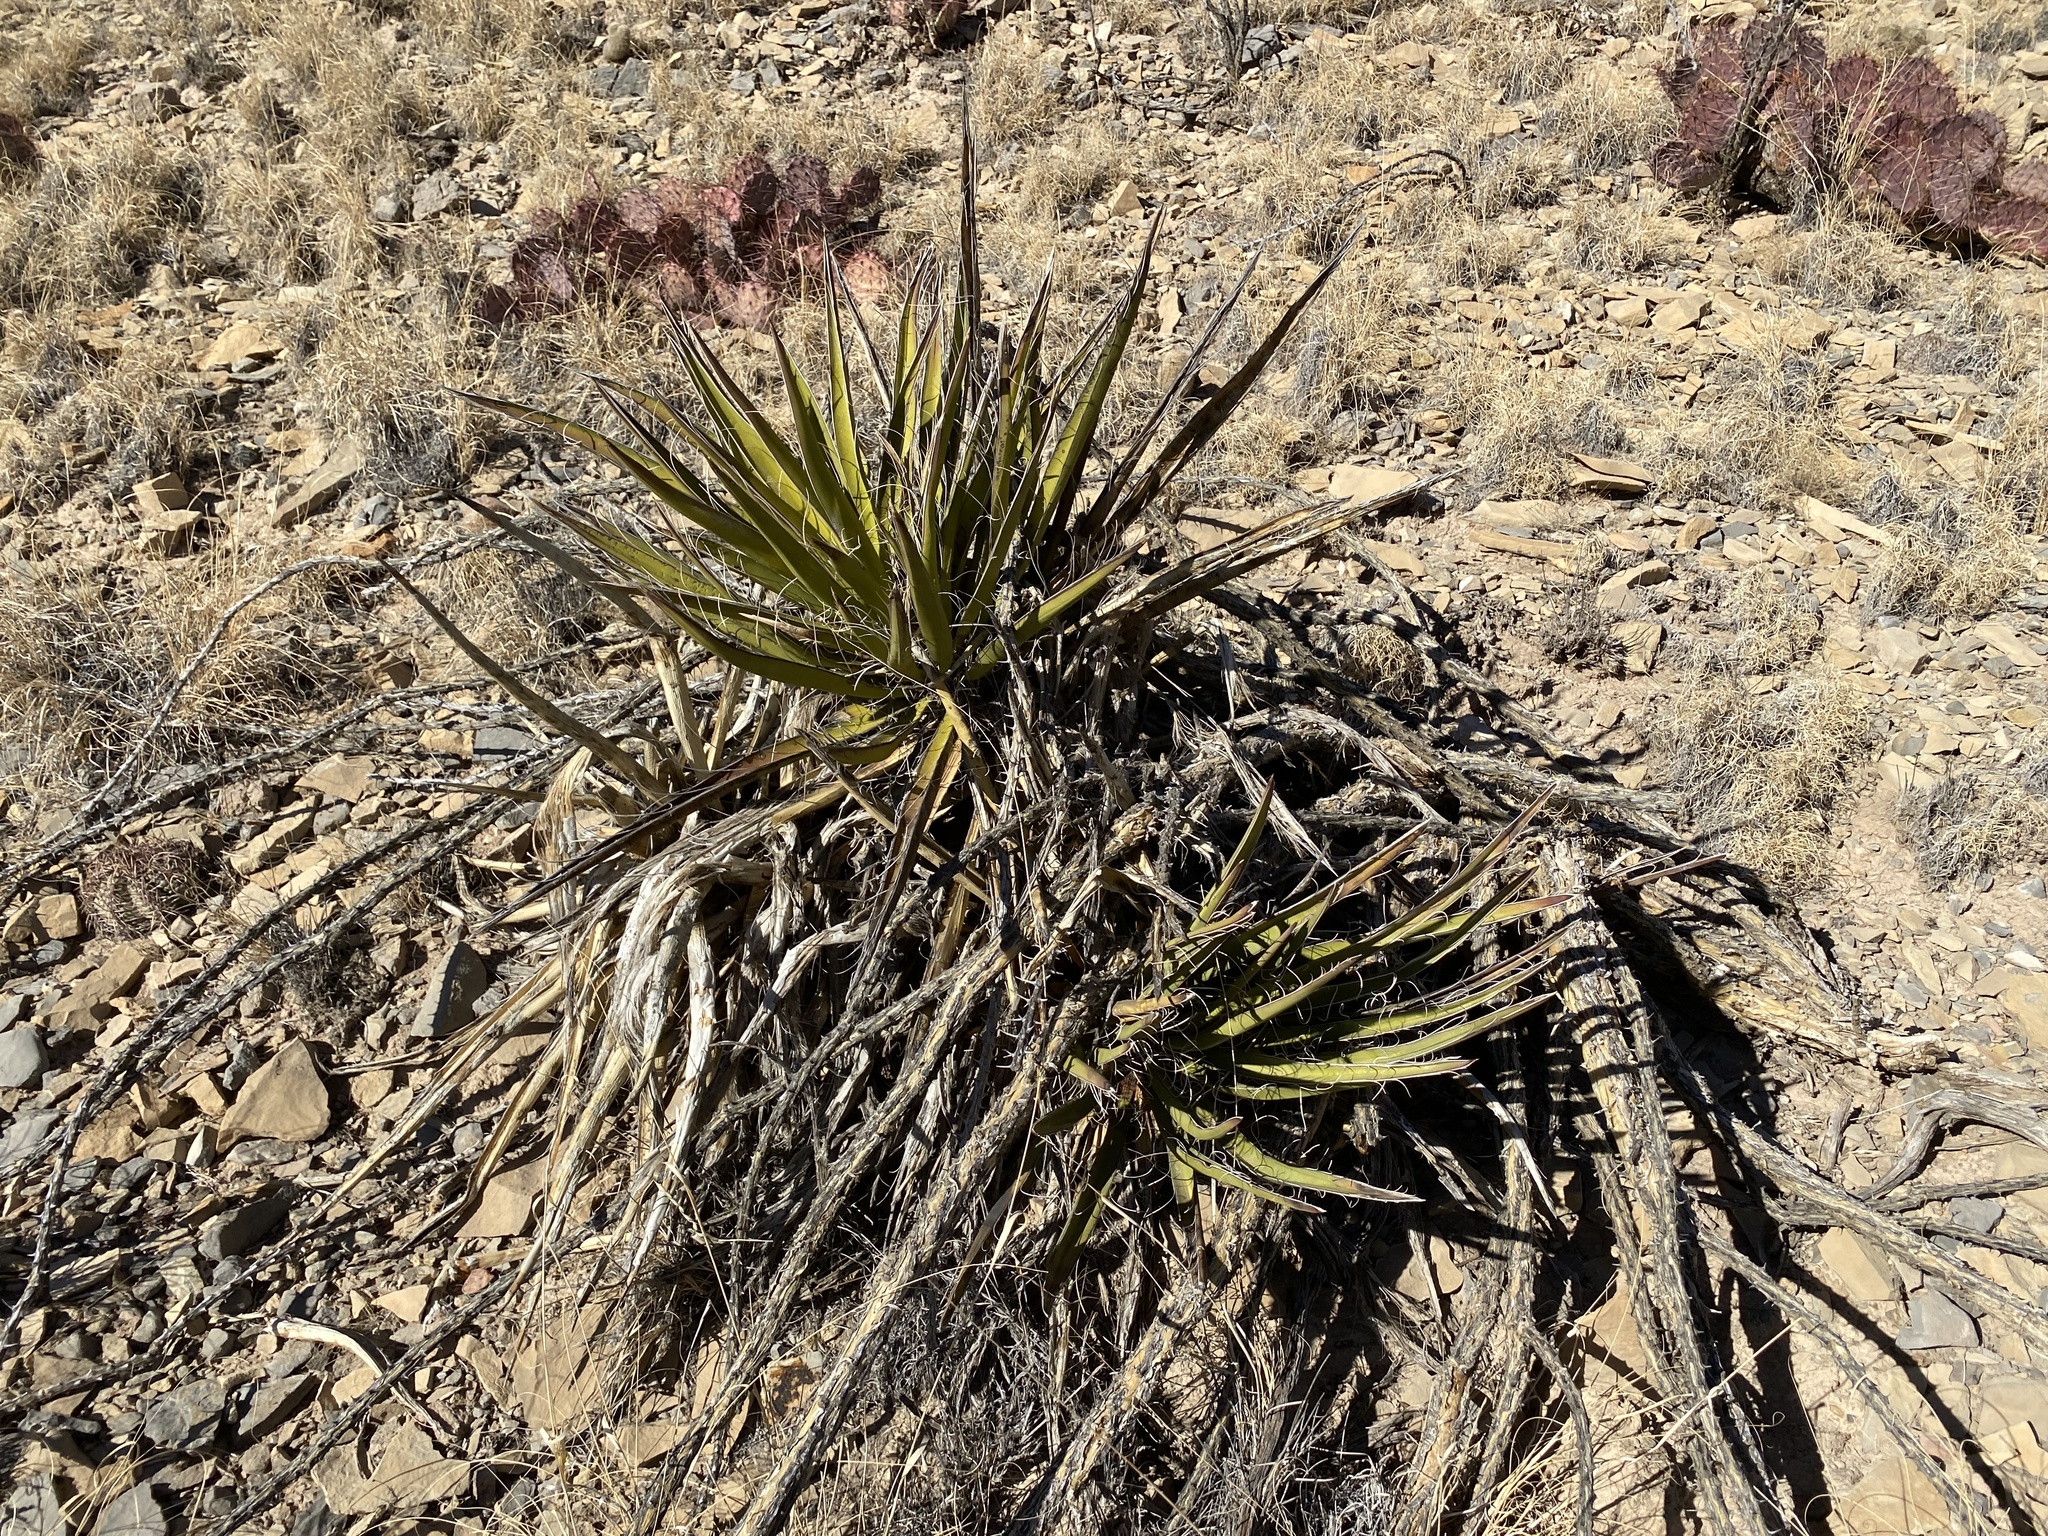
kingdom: Plantae
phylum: Tracheophyta
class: Liliopsida
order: Asparagales
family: Asparagaceae
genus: Yucca
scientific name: Yucca baccata
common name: Banana yucca
